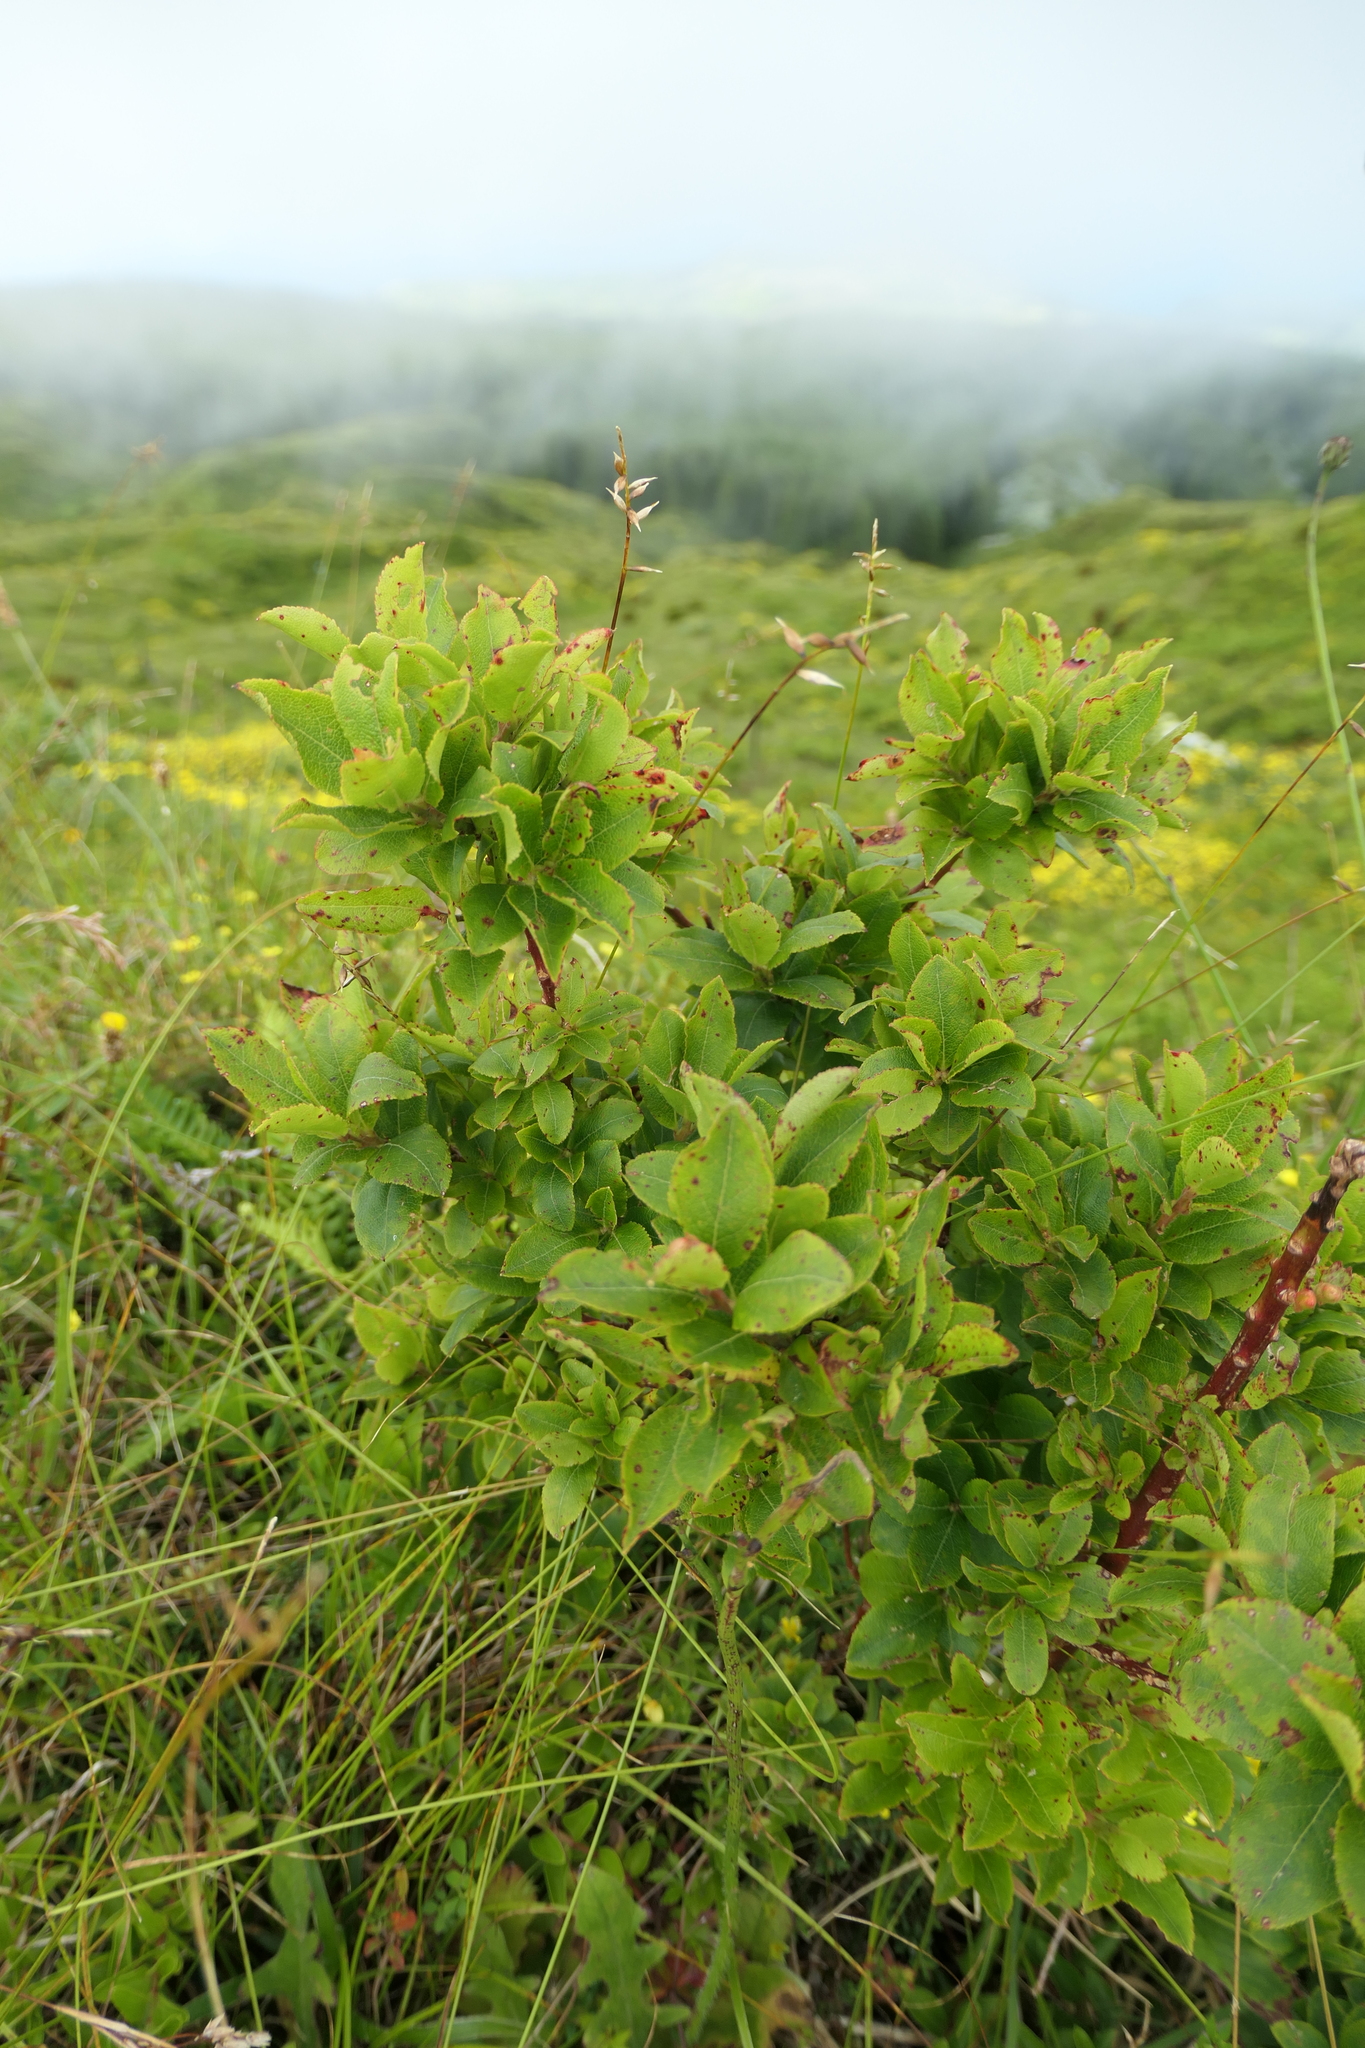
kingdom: Plantae
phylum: Tracheophyta
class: Magnoliopsida
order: Ericales
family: Ericaceae
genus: Vaccinium
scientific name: Vaccinium cylindraceum
